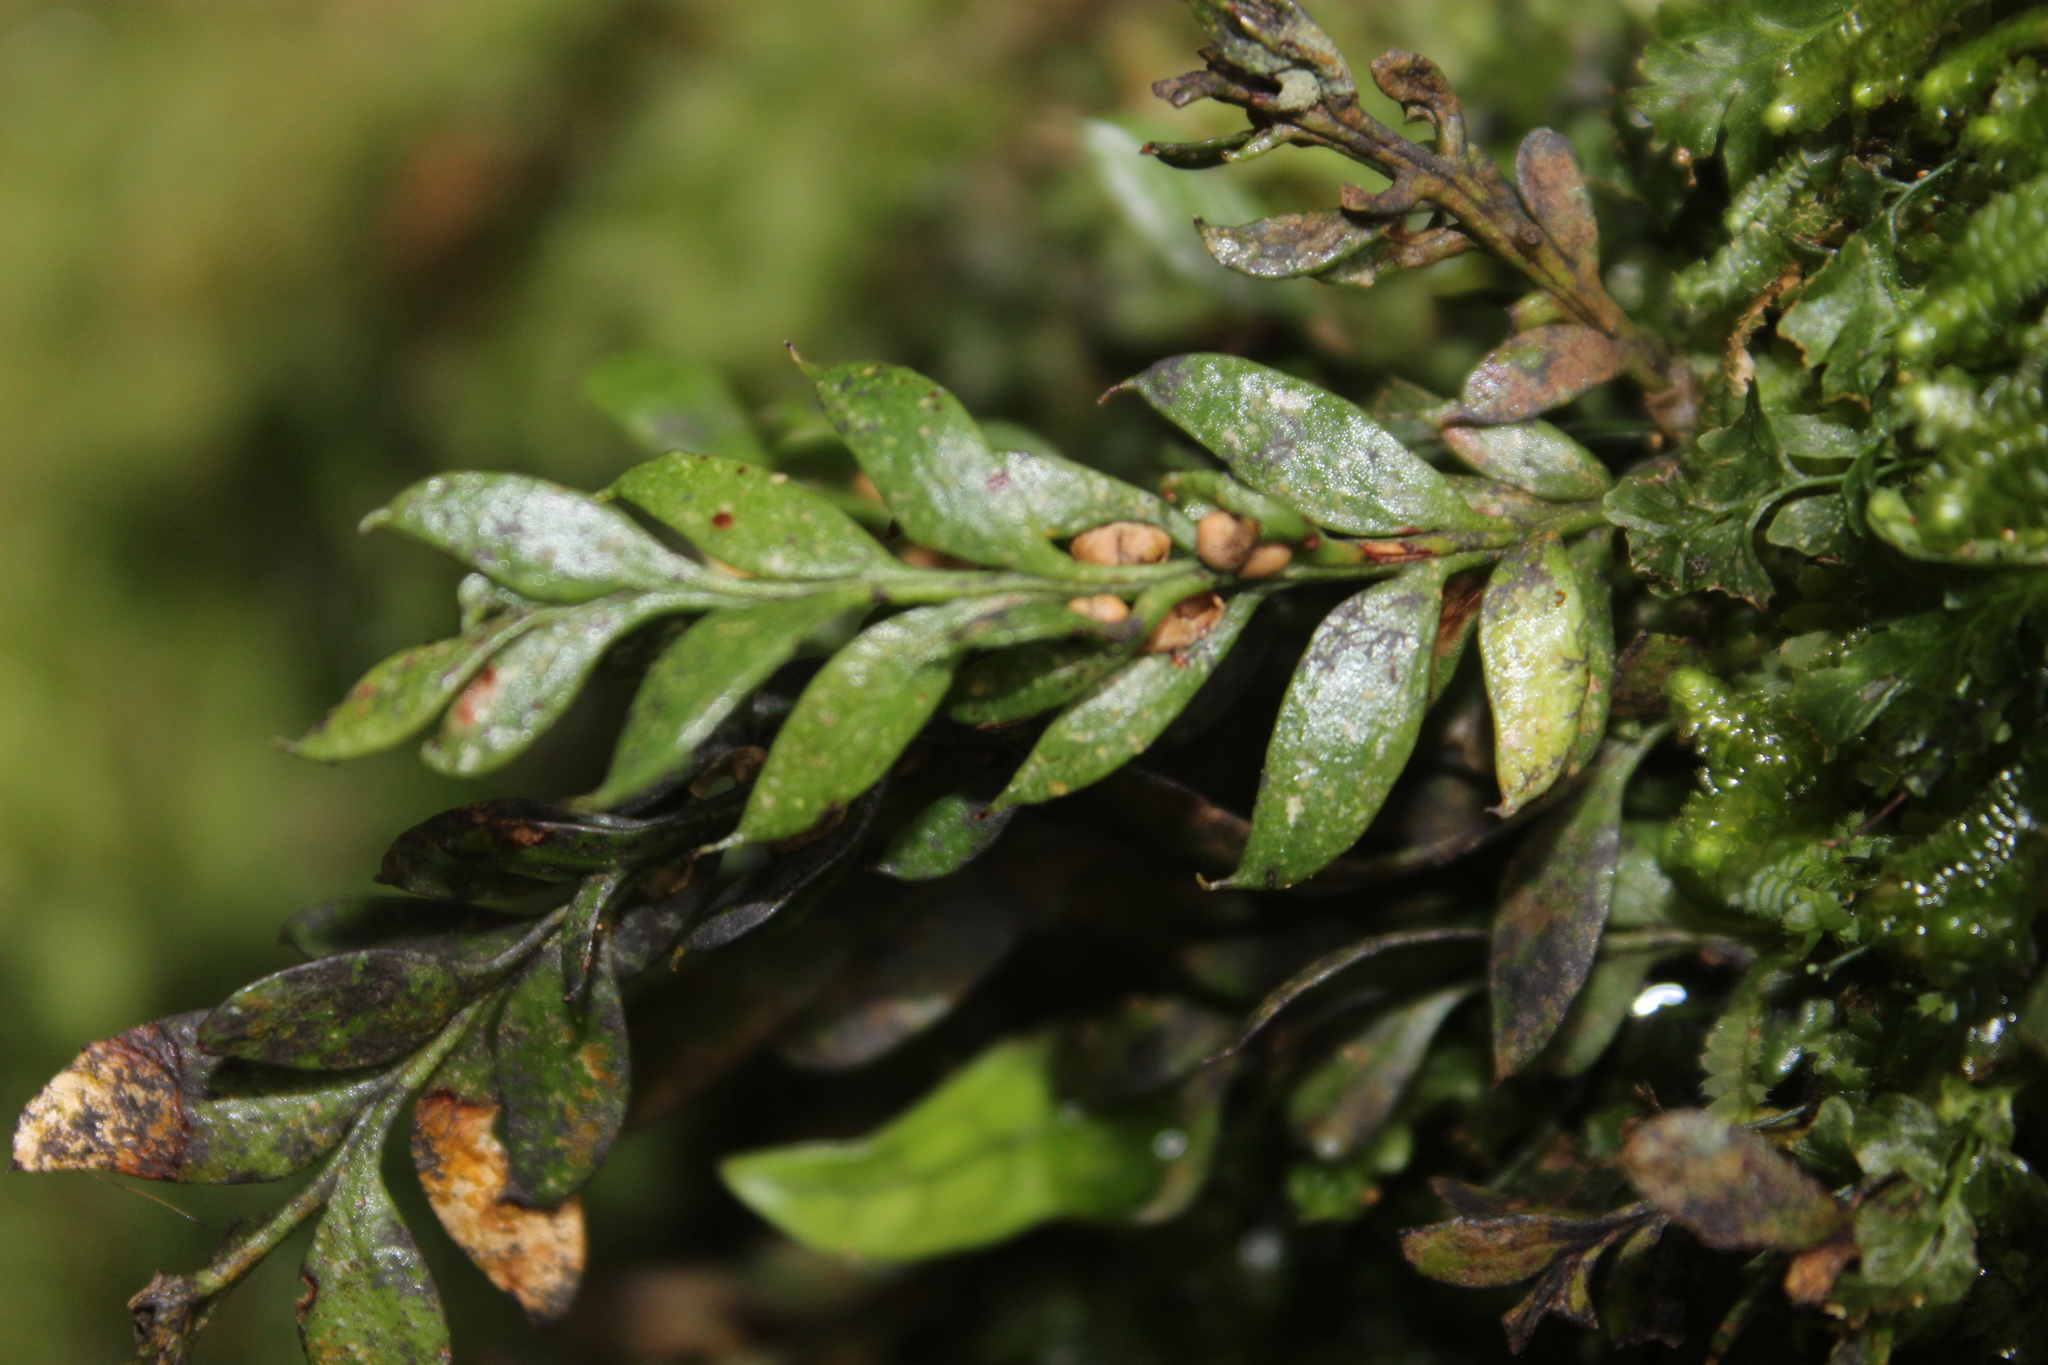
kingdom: Plantae
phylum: Tracheophyta
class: Polypodiopsida
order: Psilotales
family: Psilotaceae
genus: Tmesipteris
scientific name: Tmesipteris lanceolata
